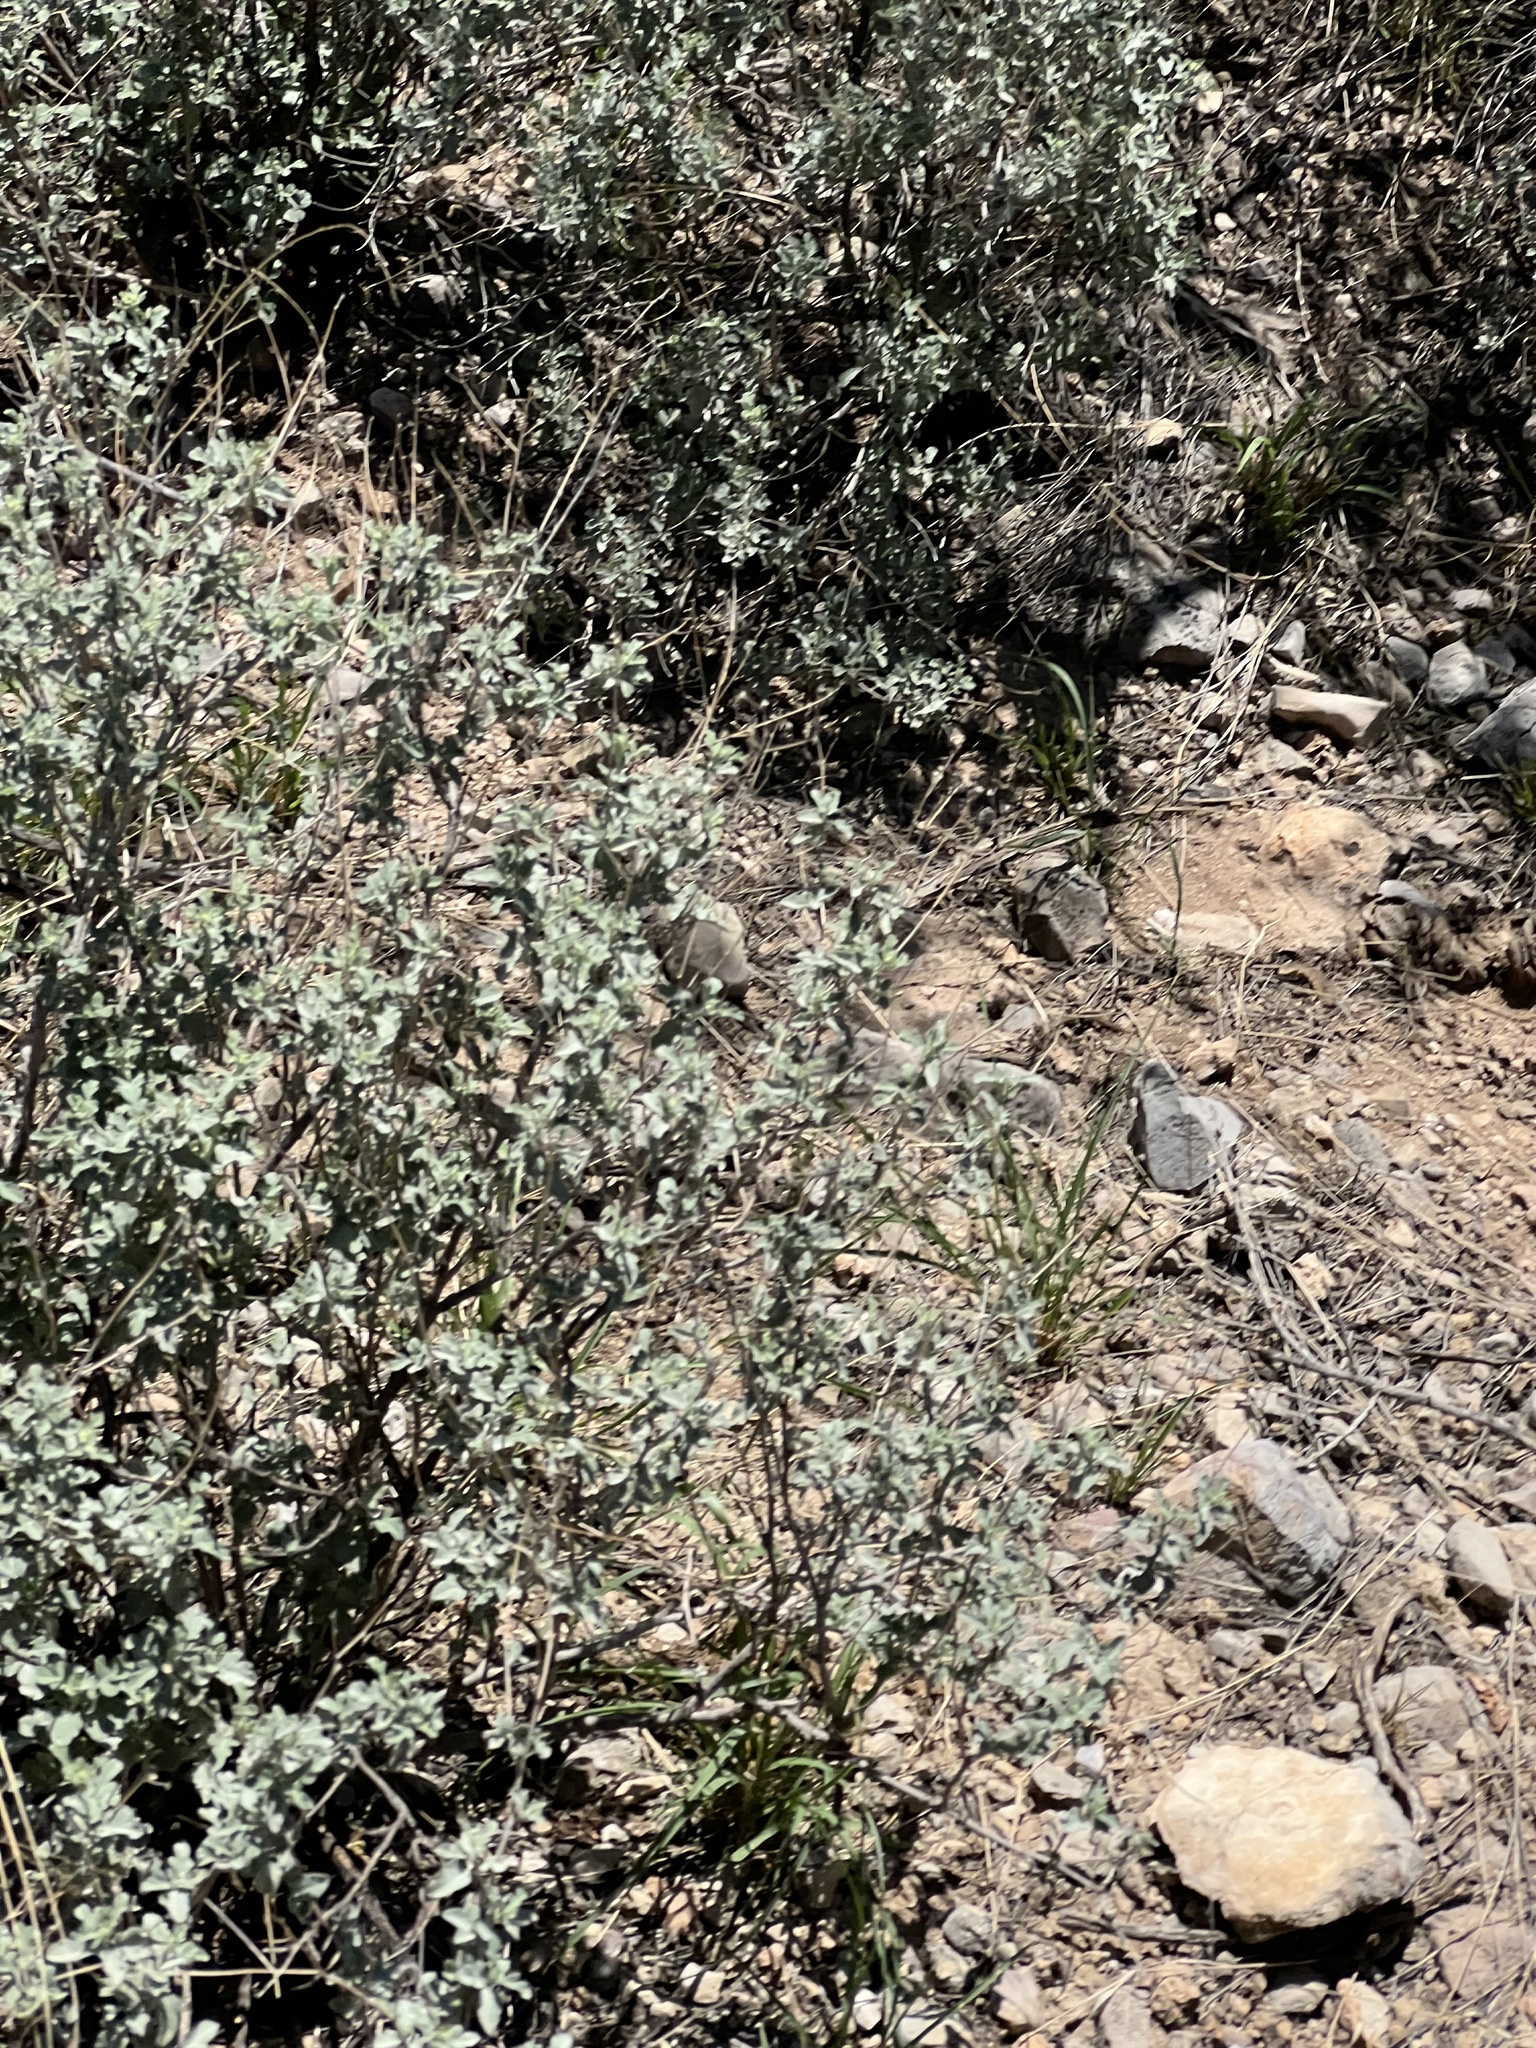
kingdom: Plantae
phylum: Tracheophyta
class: Magnoliopsida
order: Asterales
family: Asteraceae
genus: Parthenium
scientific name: Parthenium incanum
